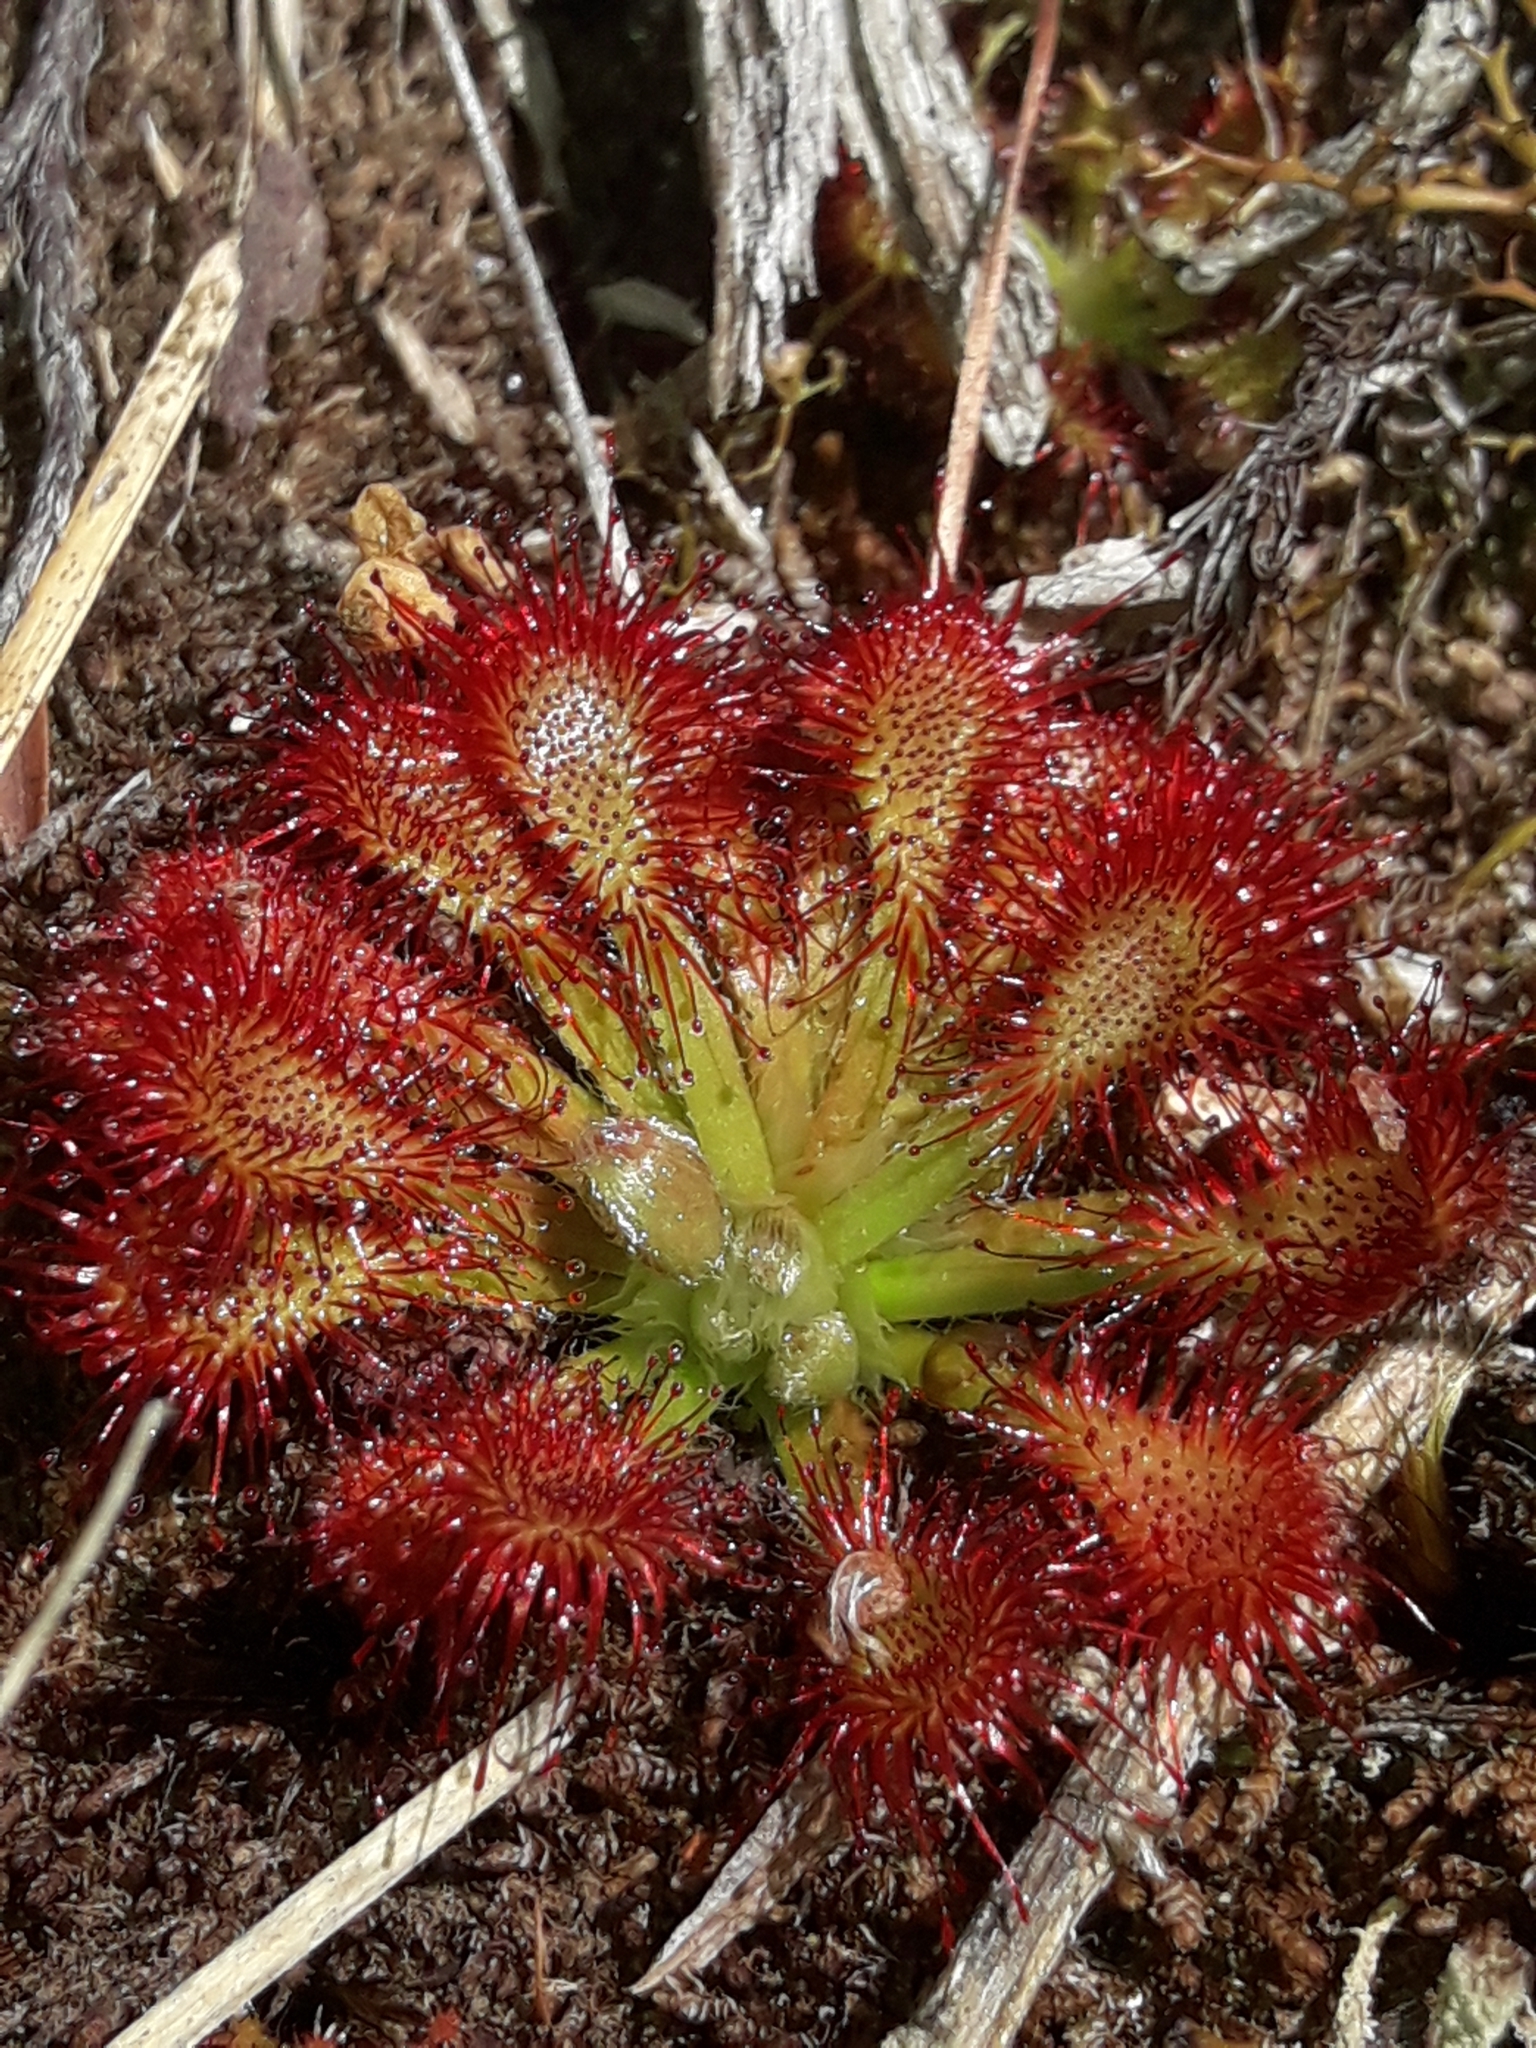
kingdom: Plantae
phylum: Tracheophyta
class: Magnoliopsida
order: Caryophyllales
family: Droseraceae
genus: Drosera
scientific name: Drosera spatulata
